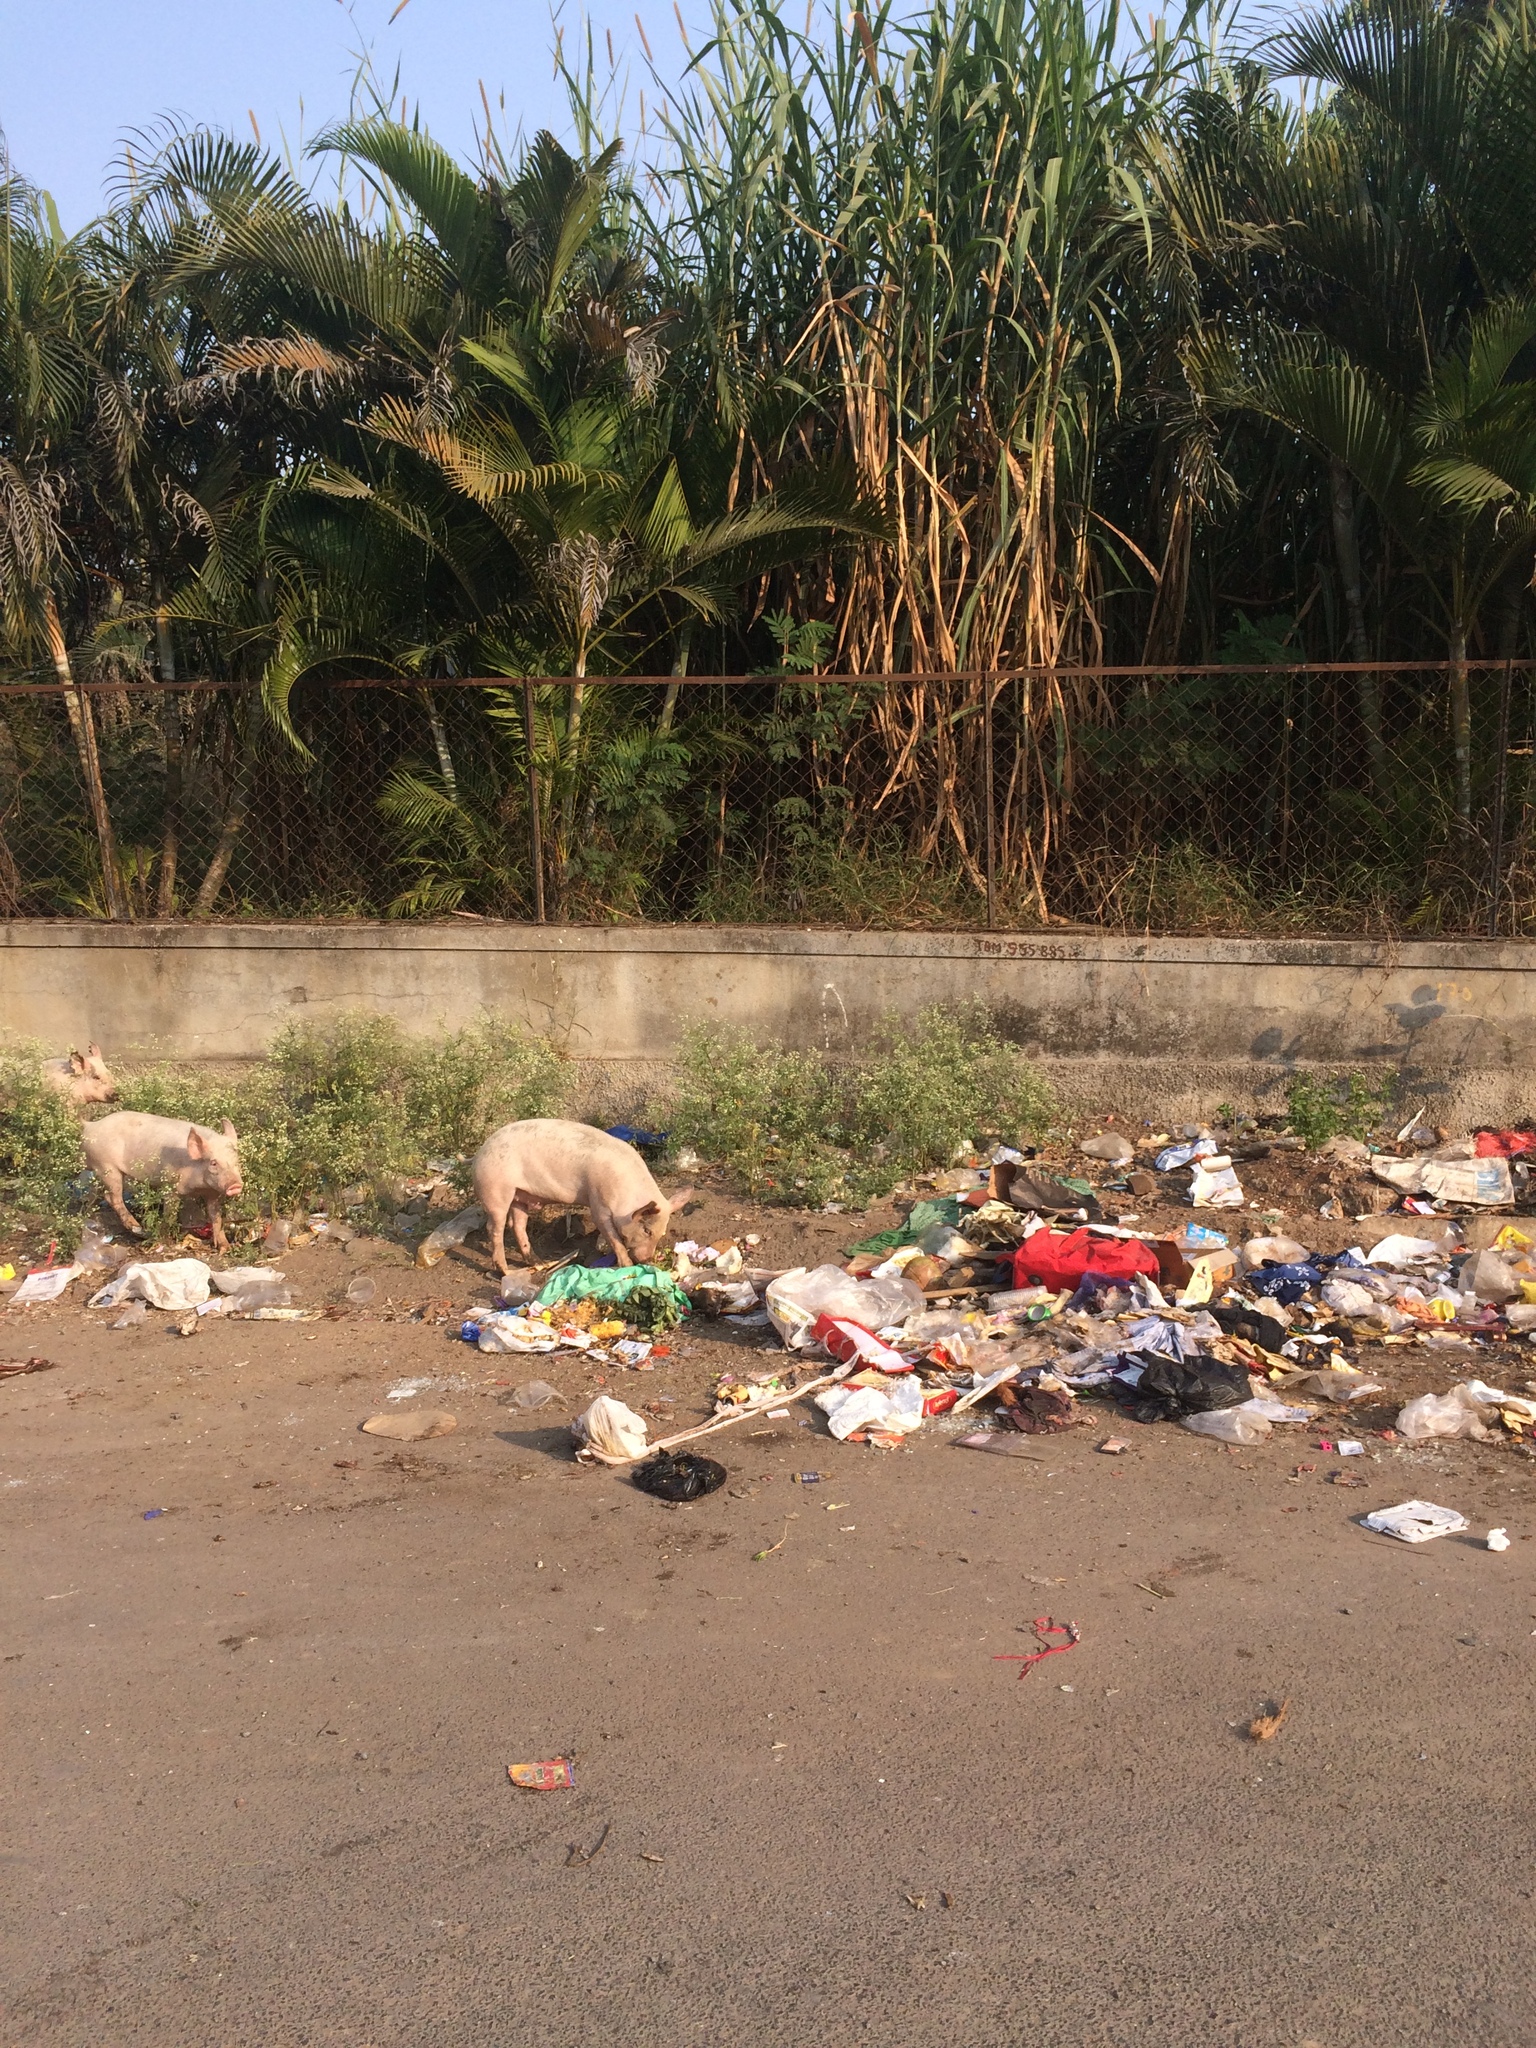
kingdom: Animalia
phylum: Chordata
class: Mammalia
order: Artiodactyla
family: Suidae
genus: Sus
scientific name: Sus scrofa
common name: Wild boar
